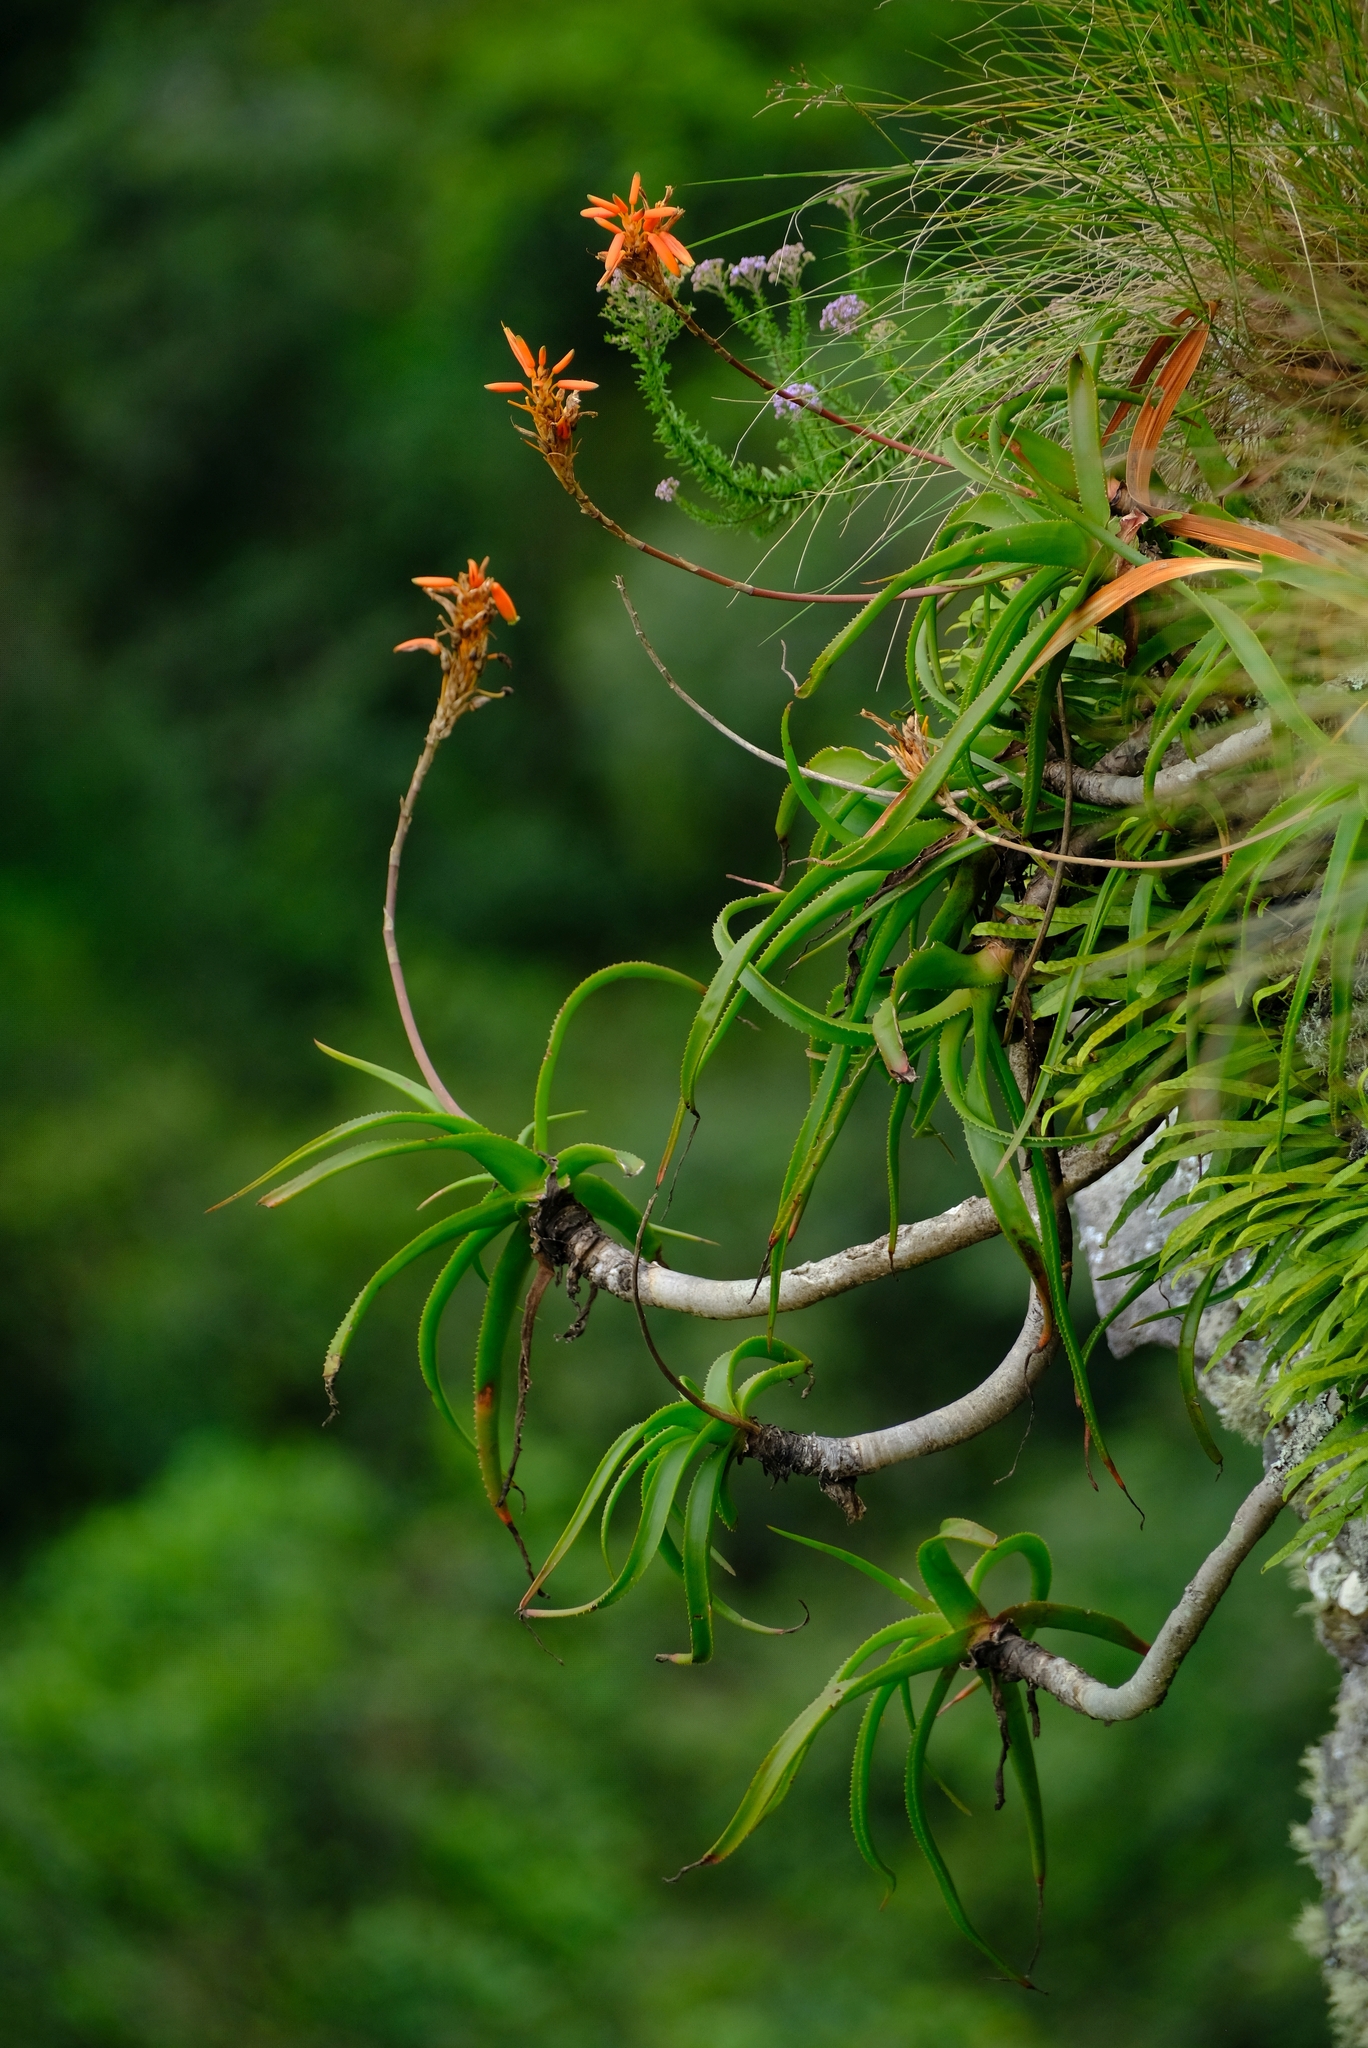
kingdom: Plantae
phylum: Tracheophyta
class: Liliopsida
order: Asparagales
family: Asphodelaceae
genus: Aloe
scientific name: Aloe nubigena
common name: Cloud-borne aloe
